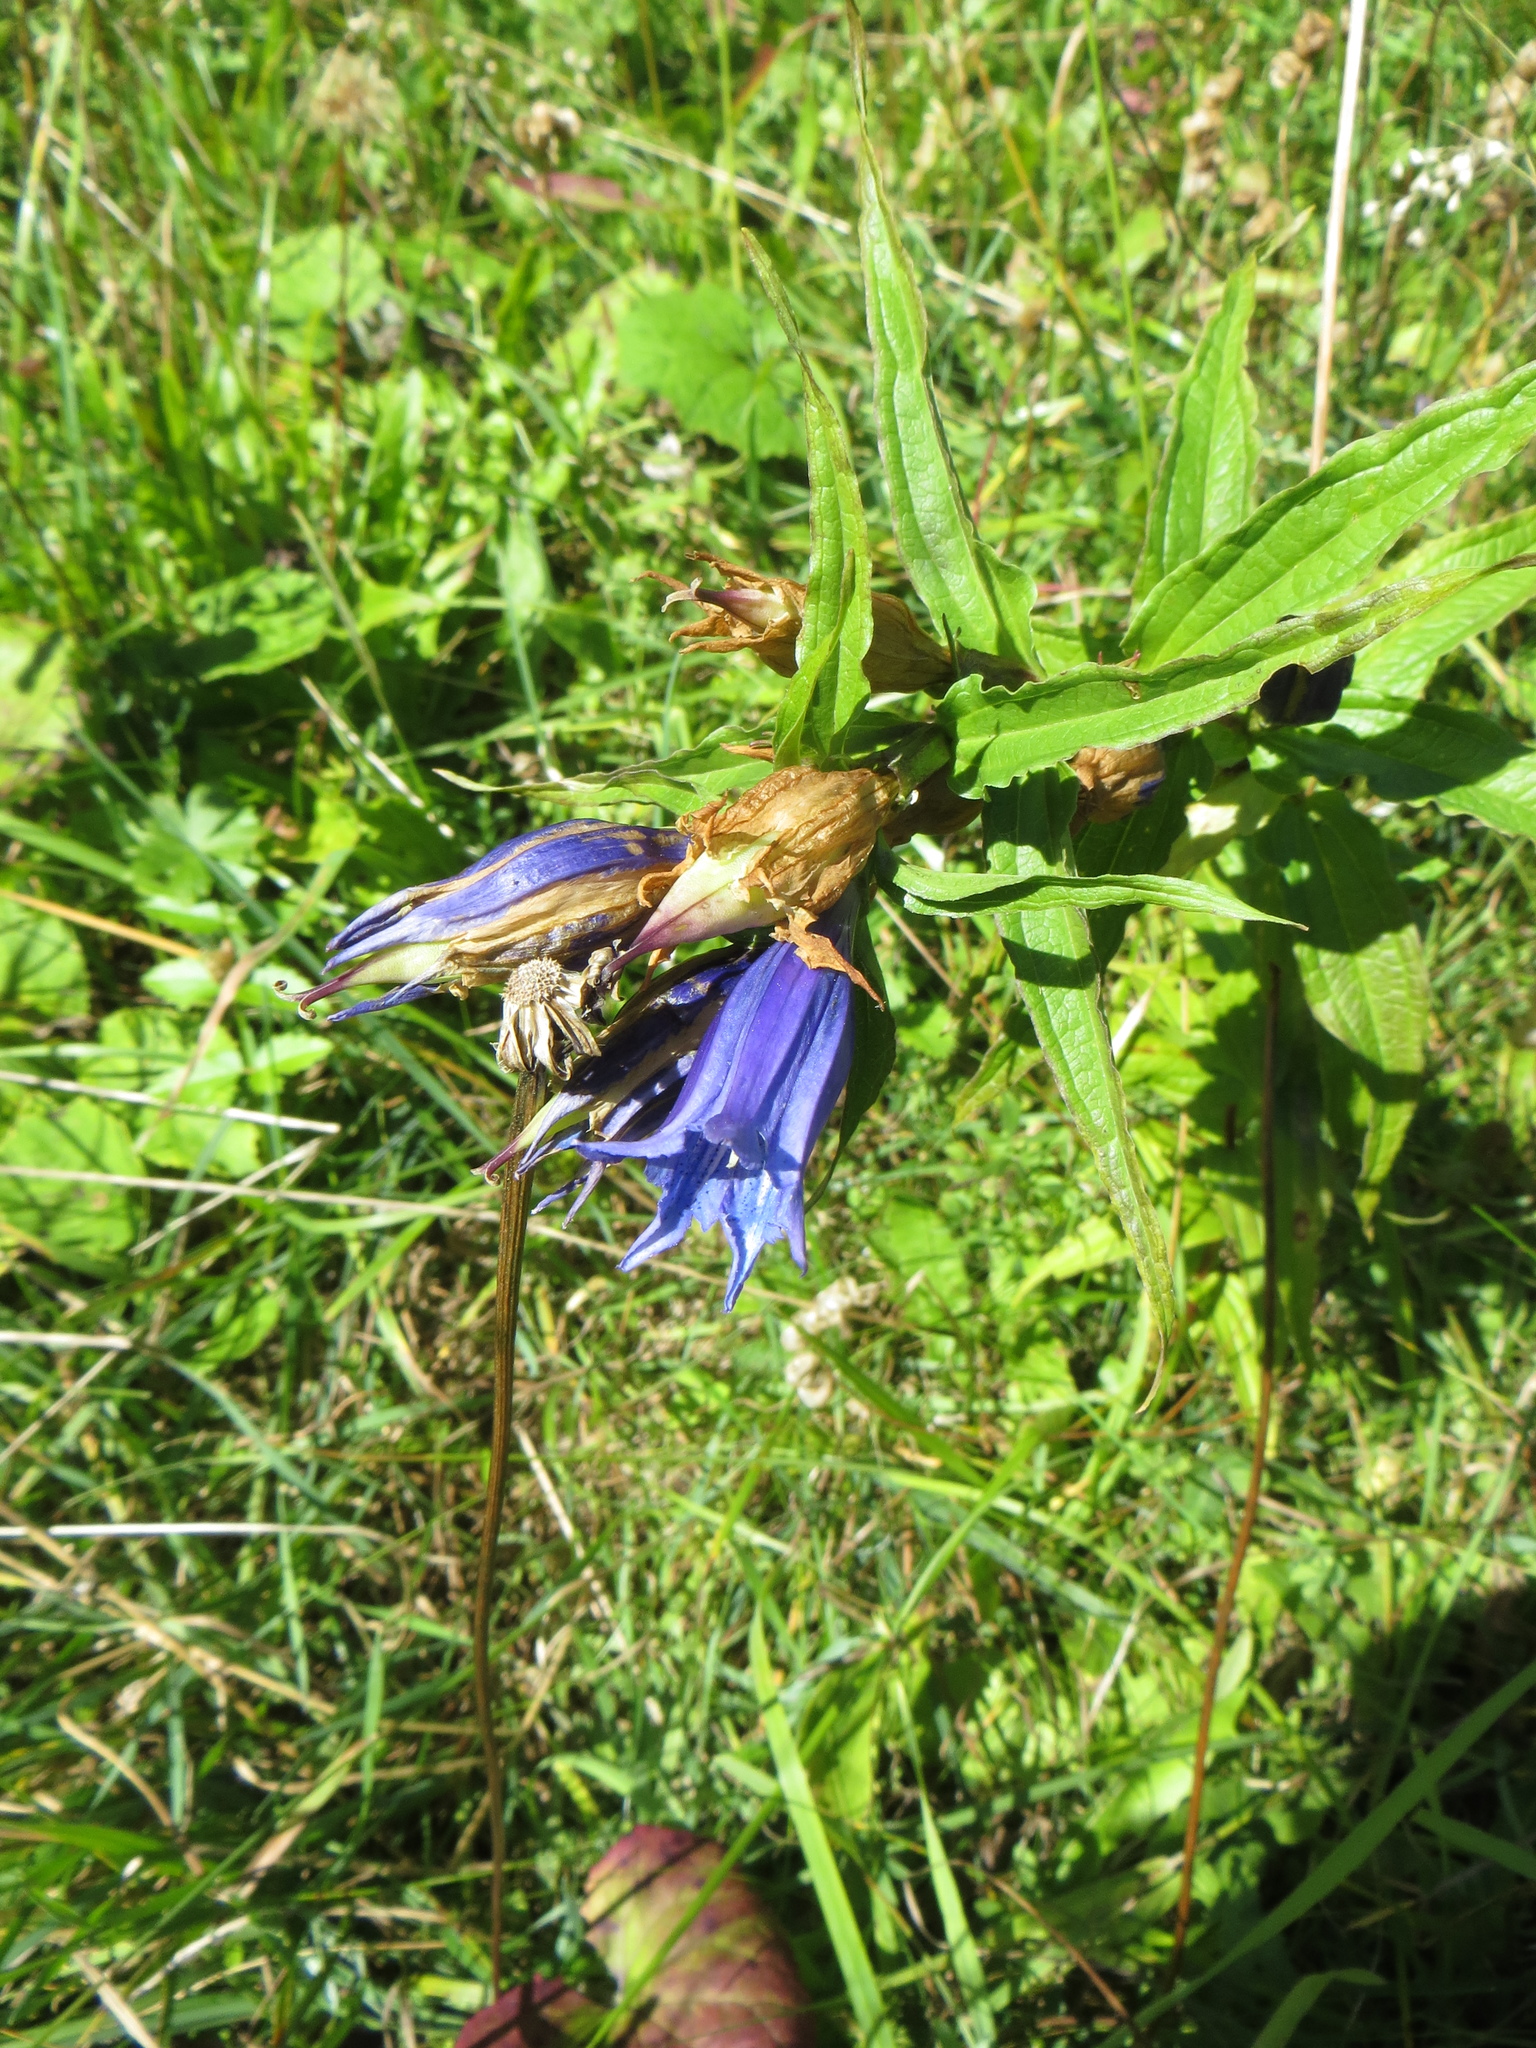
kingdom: Plantae
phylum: Tracheophyta
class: Magnoliopsida
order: Gentianales
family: Gentianaceae
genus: Gentiana
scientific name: Gentiana asclepiadea
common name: Willow gentian
